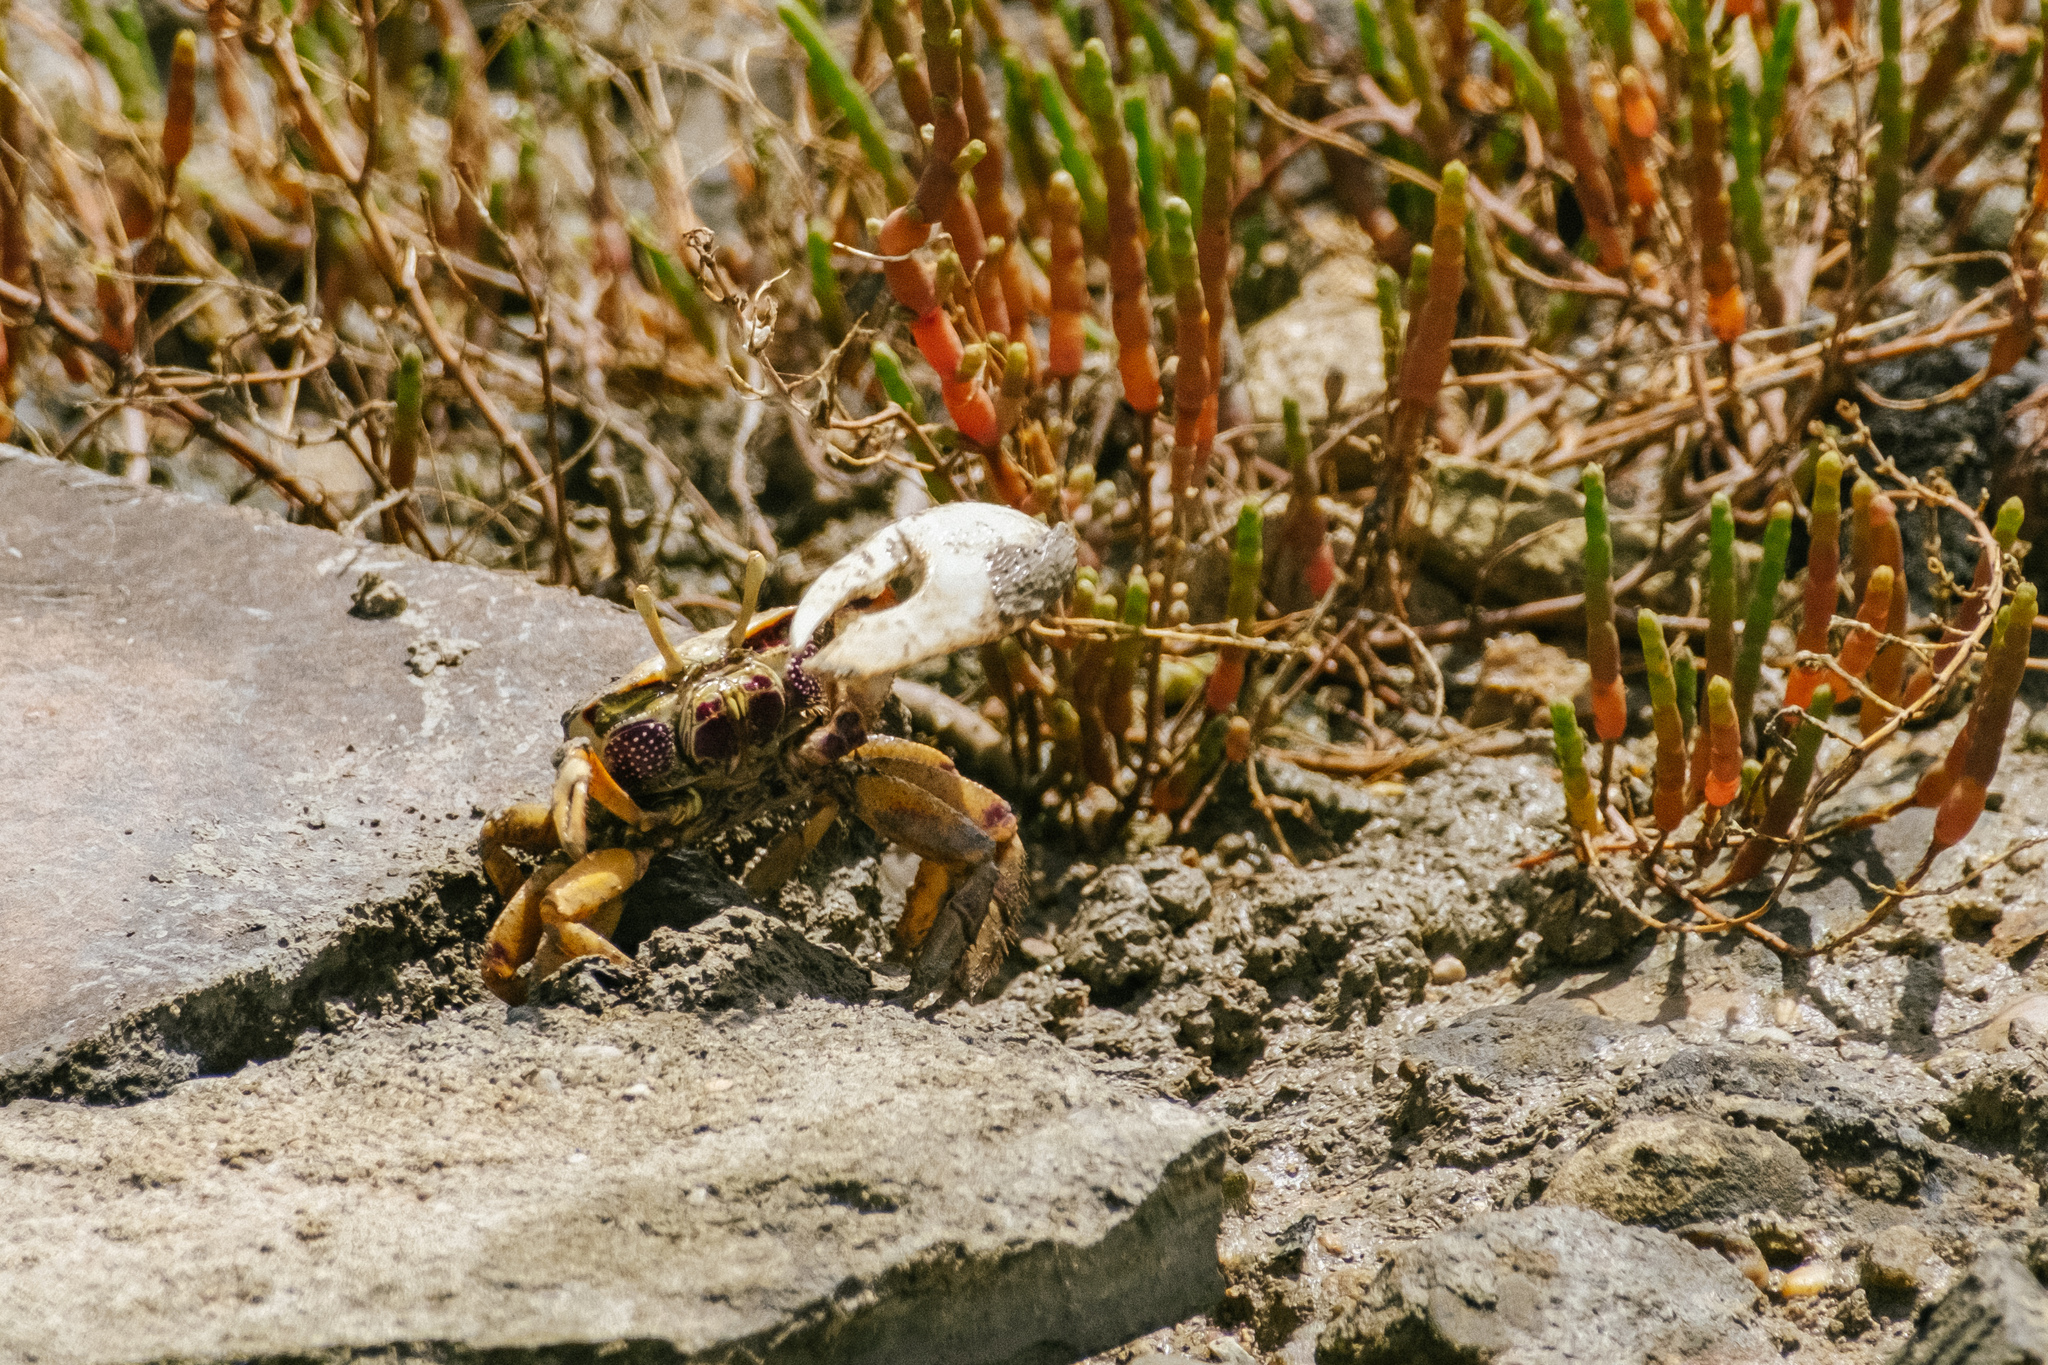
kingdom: Animalia
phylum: Arthropoda
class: Malacostraca
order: Decapoda
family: Ocypodidae
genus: Afruca
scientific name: Afruca tangeri
